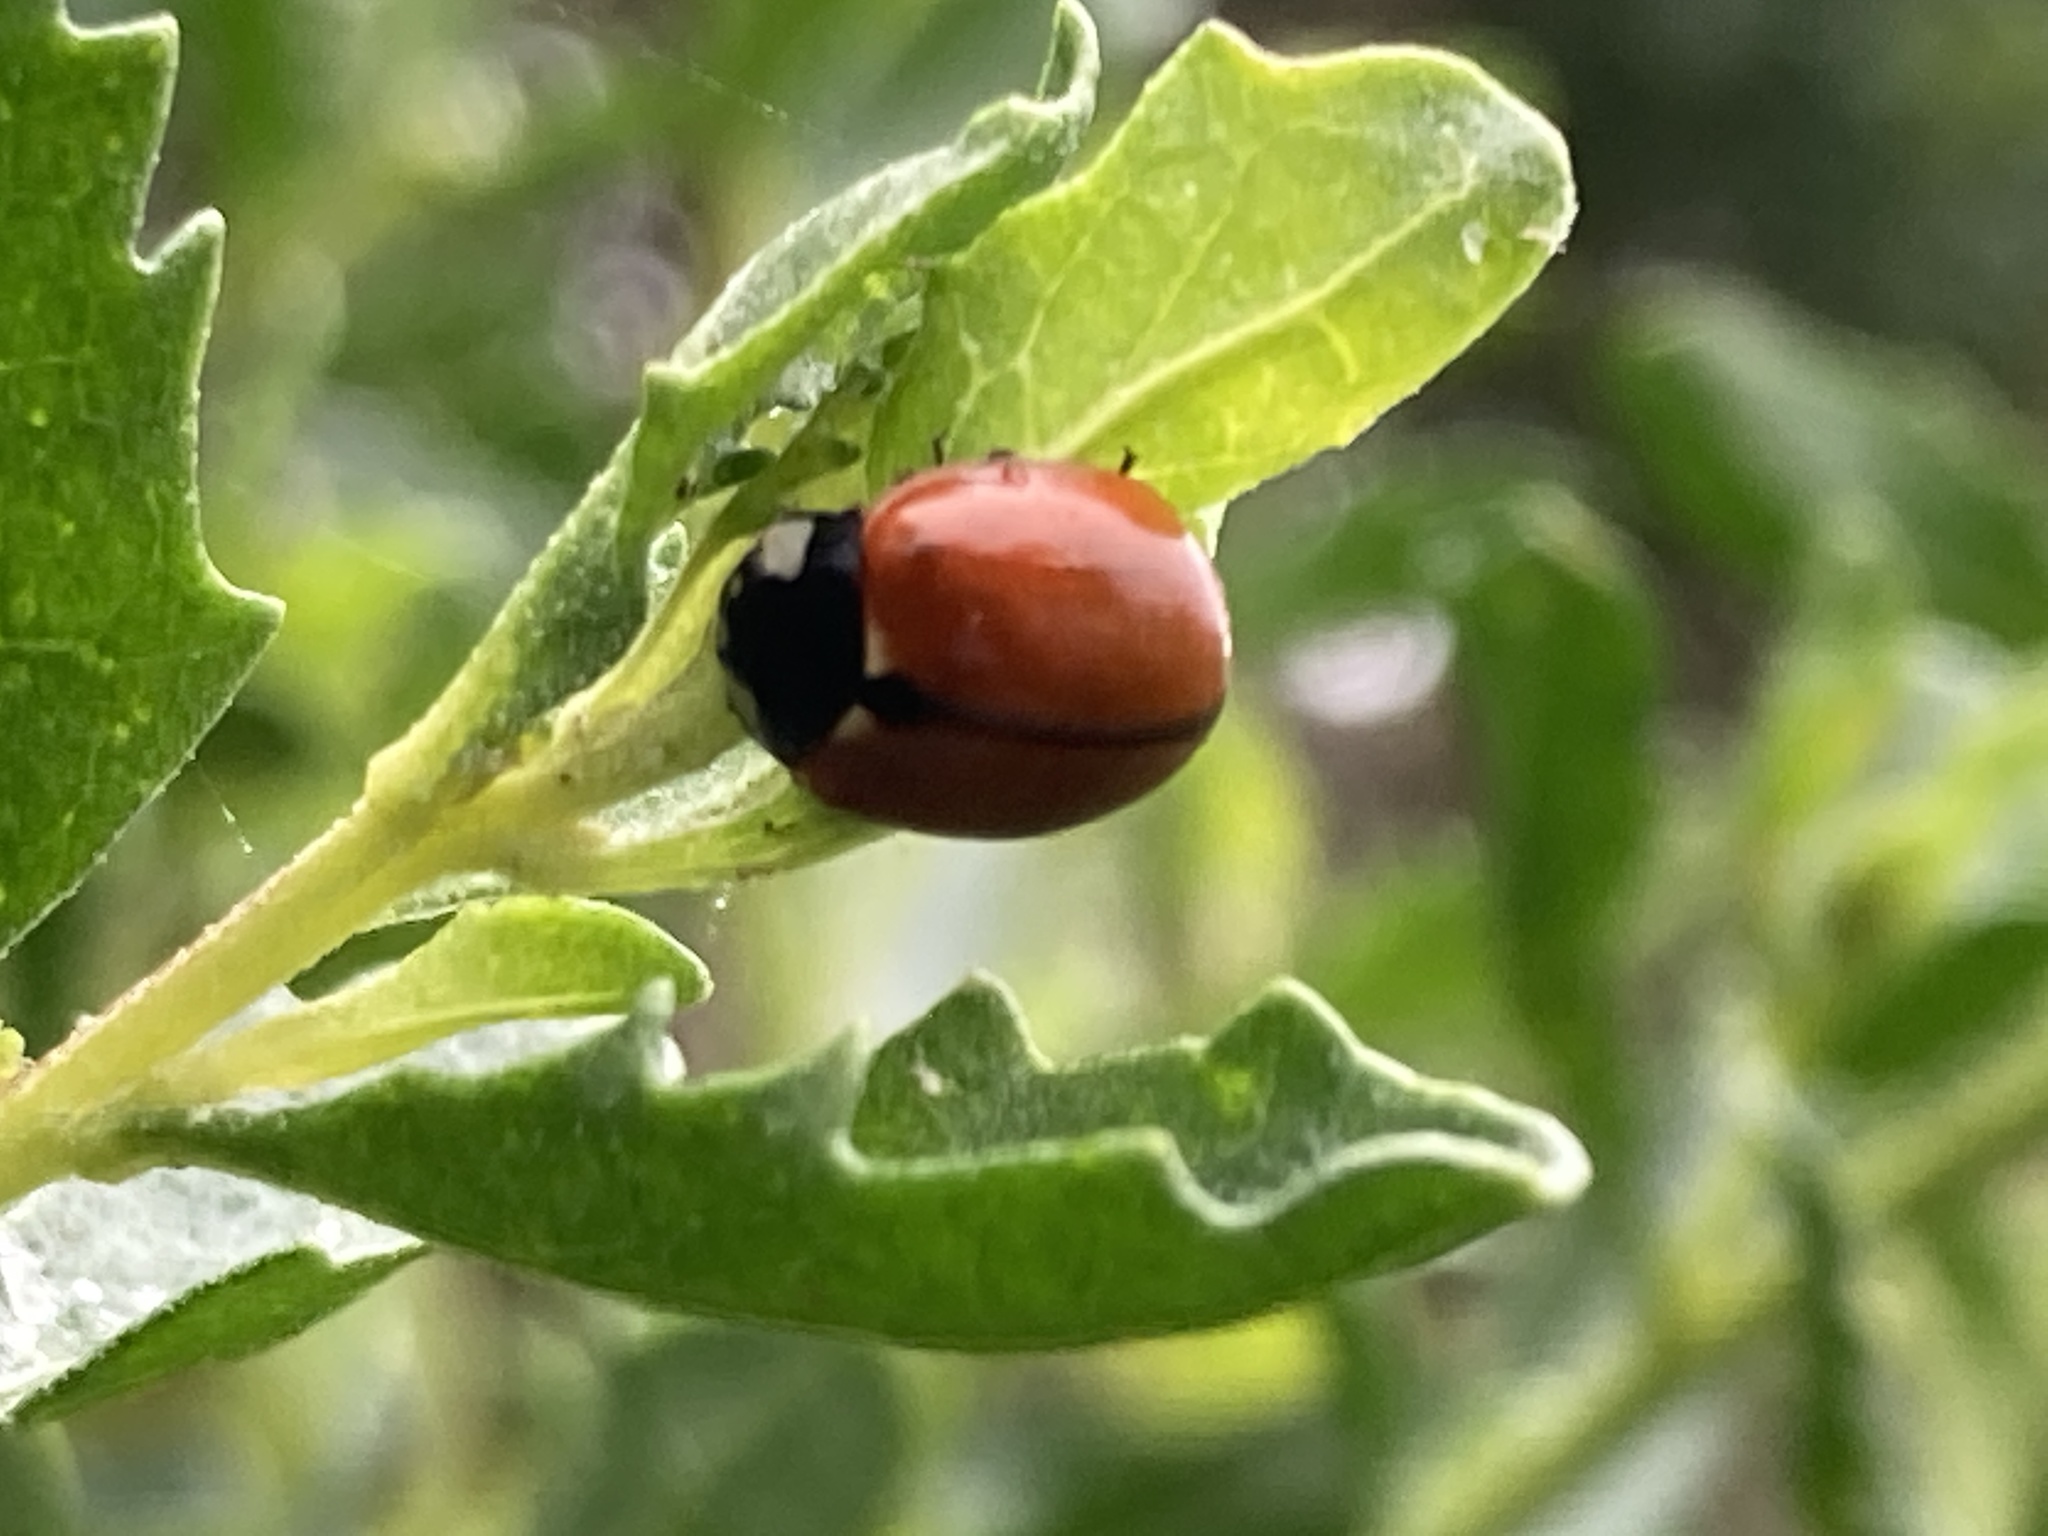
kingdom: Animalia
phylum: Arthropoda
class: Insecta
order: Coleoptera
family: Coccinellidae
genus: Coccinella
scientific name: Coccinella californica
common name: Lady beetle
